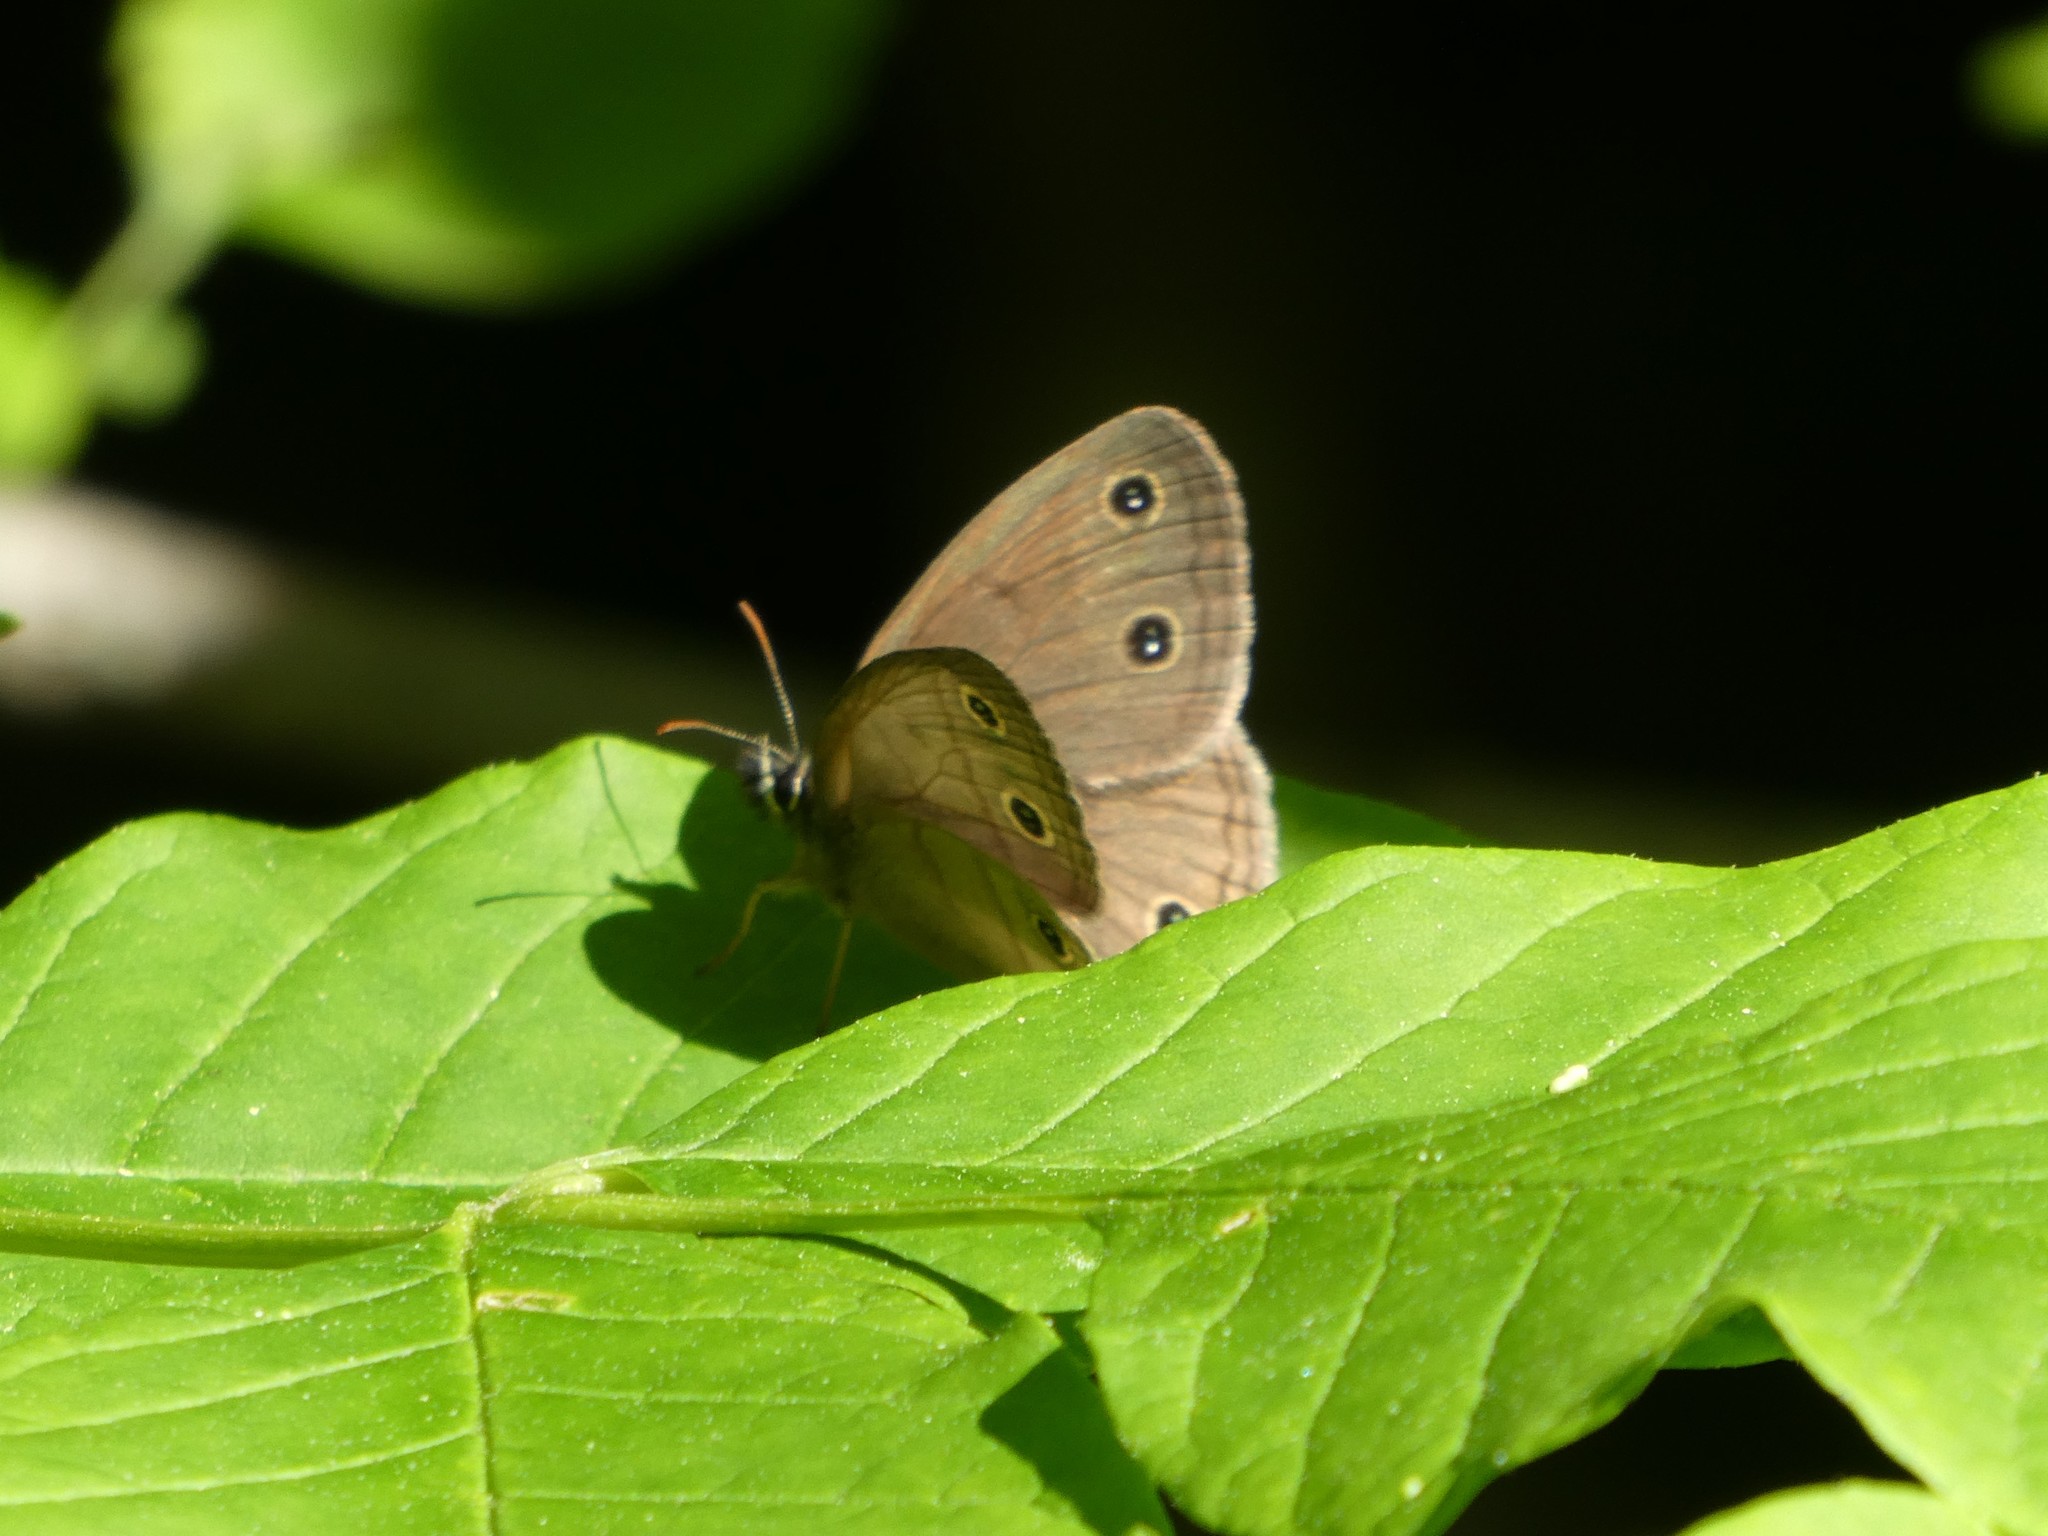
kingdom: Animalia
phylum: Arthropoda
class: Insecta
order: Lepidoptera
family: Nymphalidae
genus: Euptychia
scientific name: Euptychia cymela
